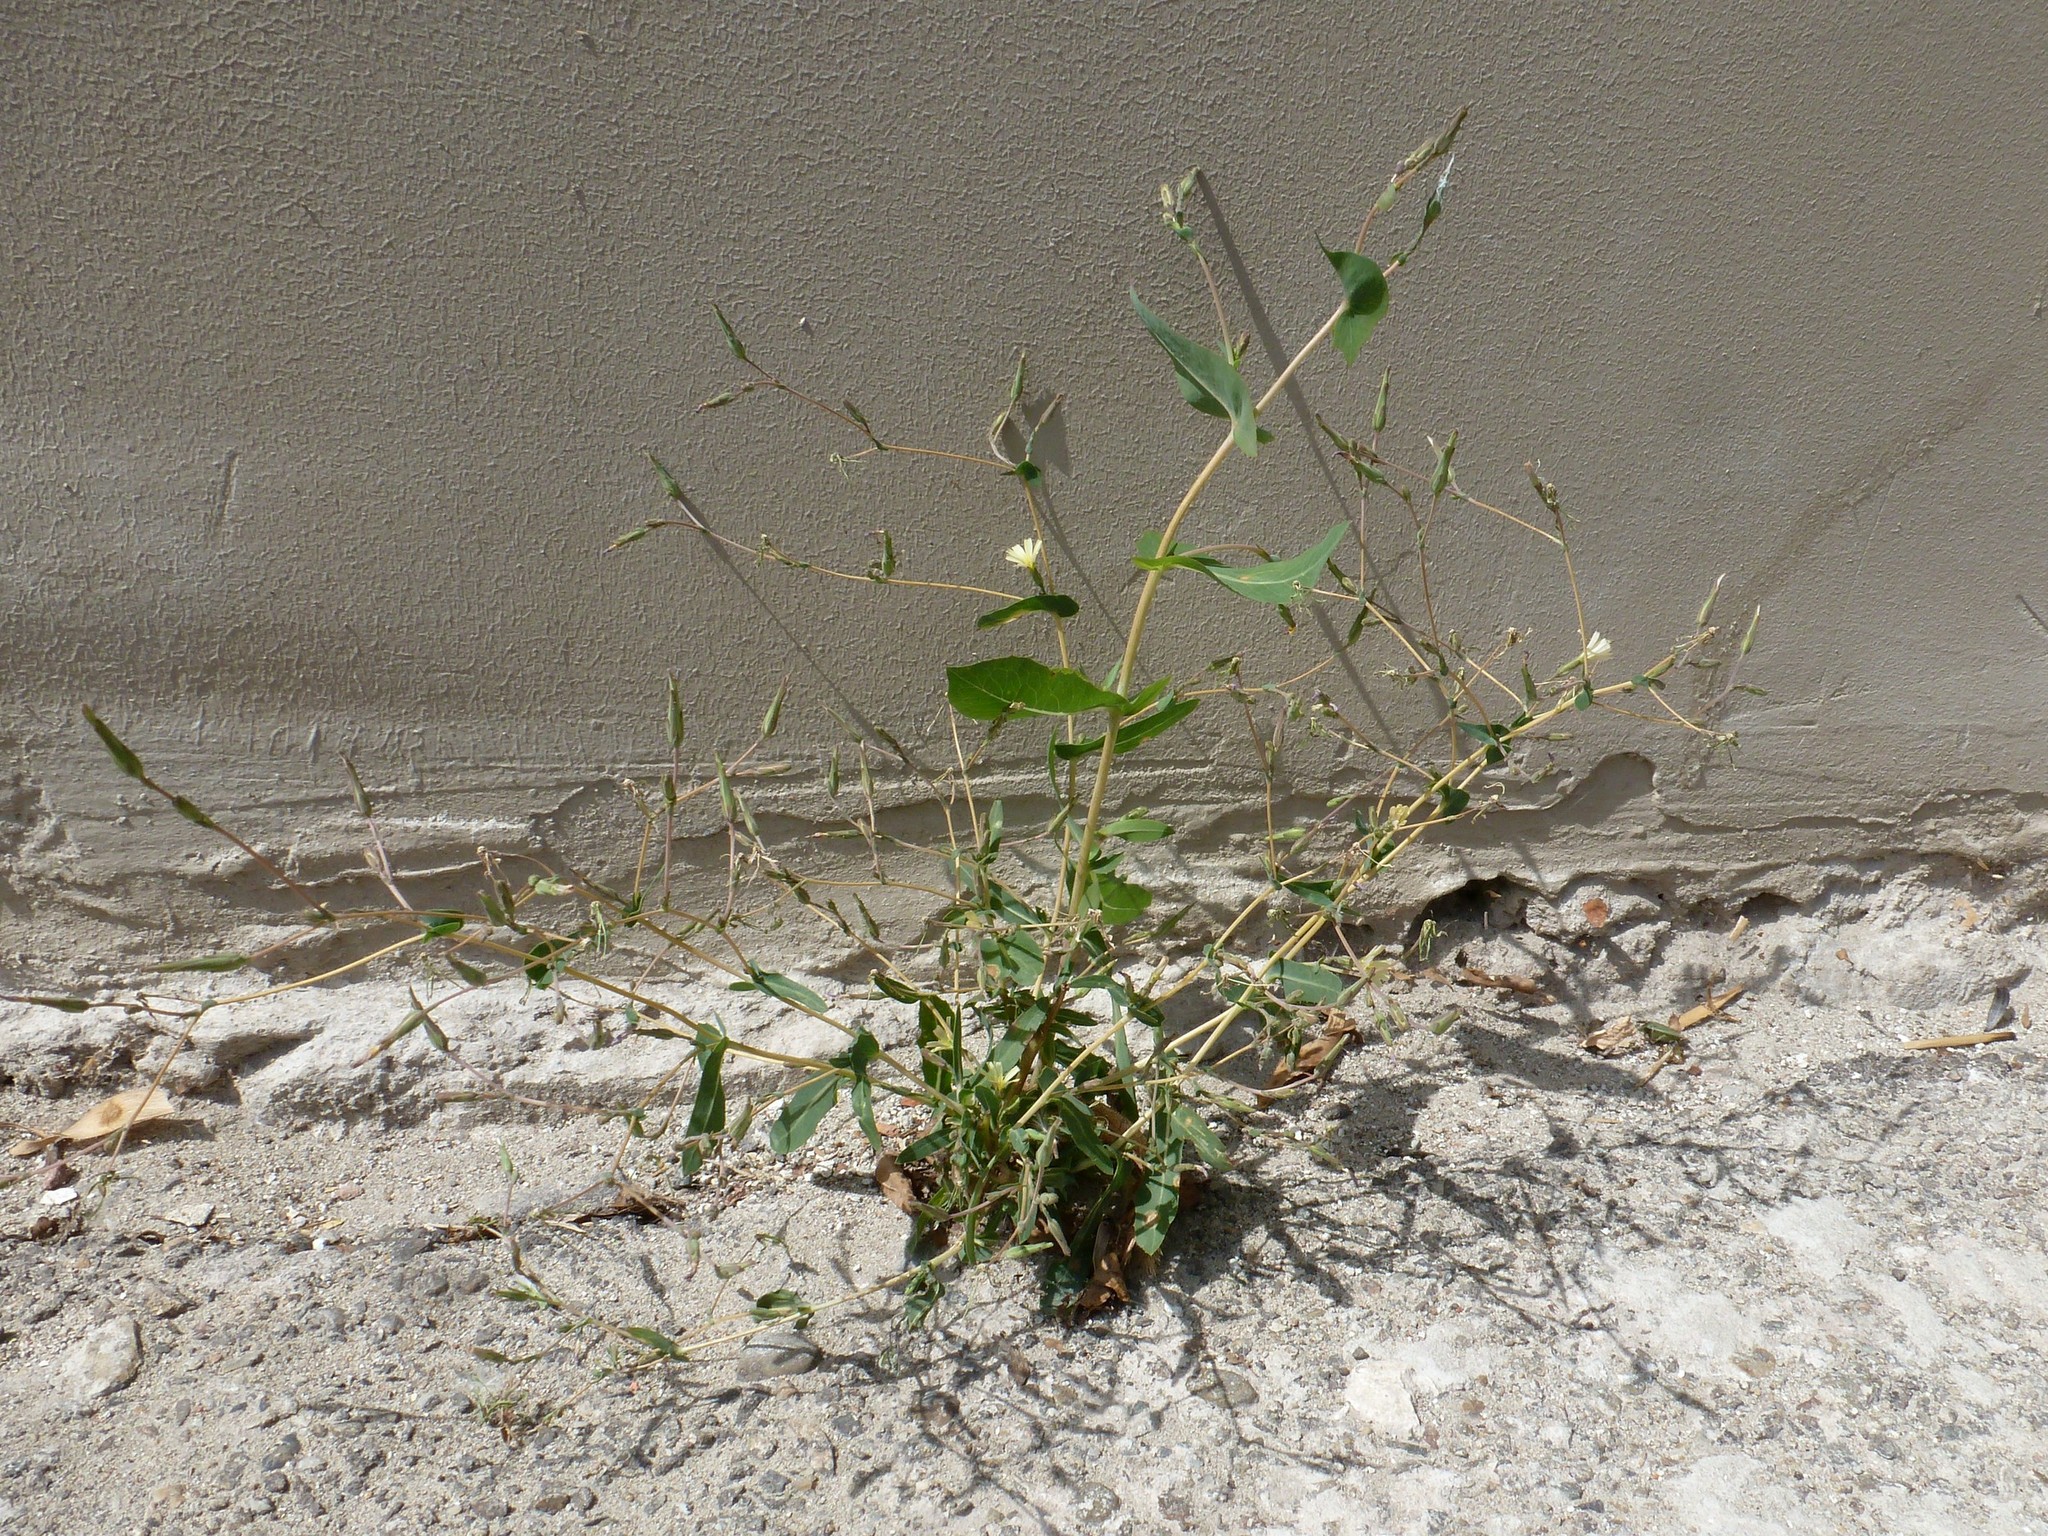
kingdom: Plantae
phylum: Tracheophyta
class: Magnoliopsida
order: Asterales
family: Asteraceae
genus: Lactuca
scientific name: Lactuca serriola
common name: Prickly lettuce
